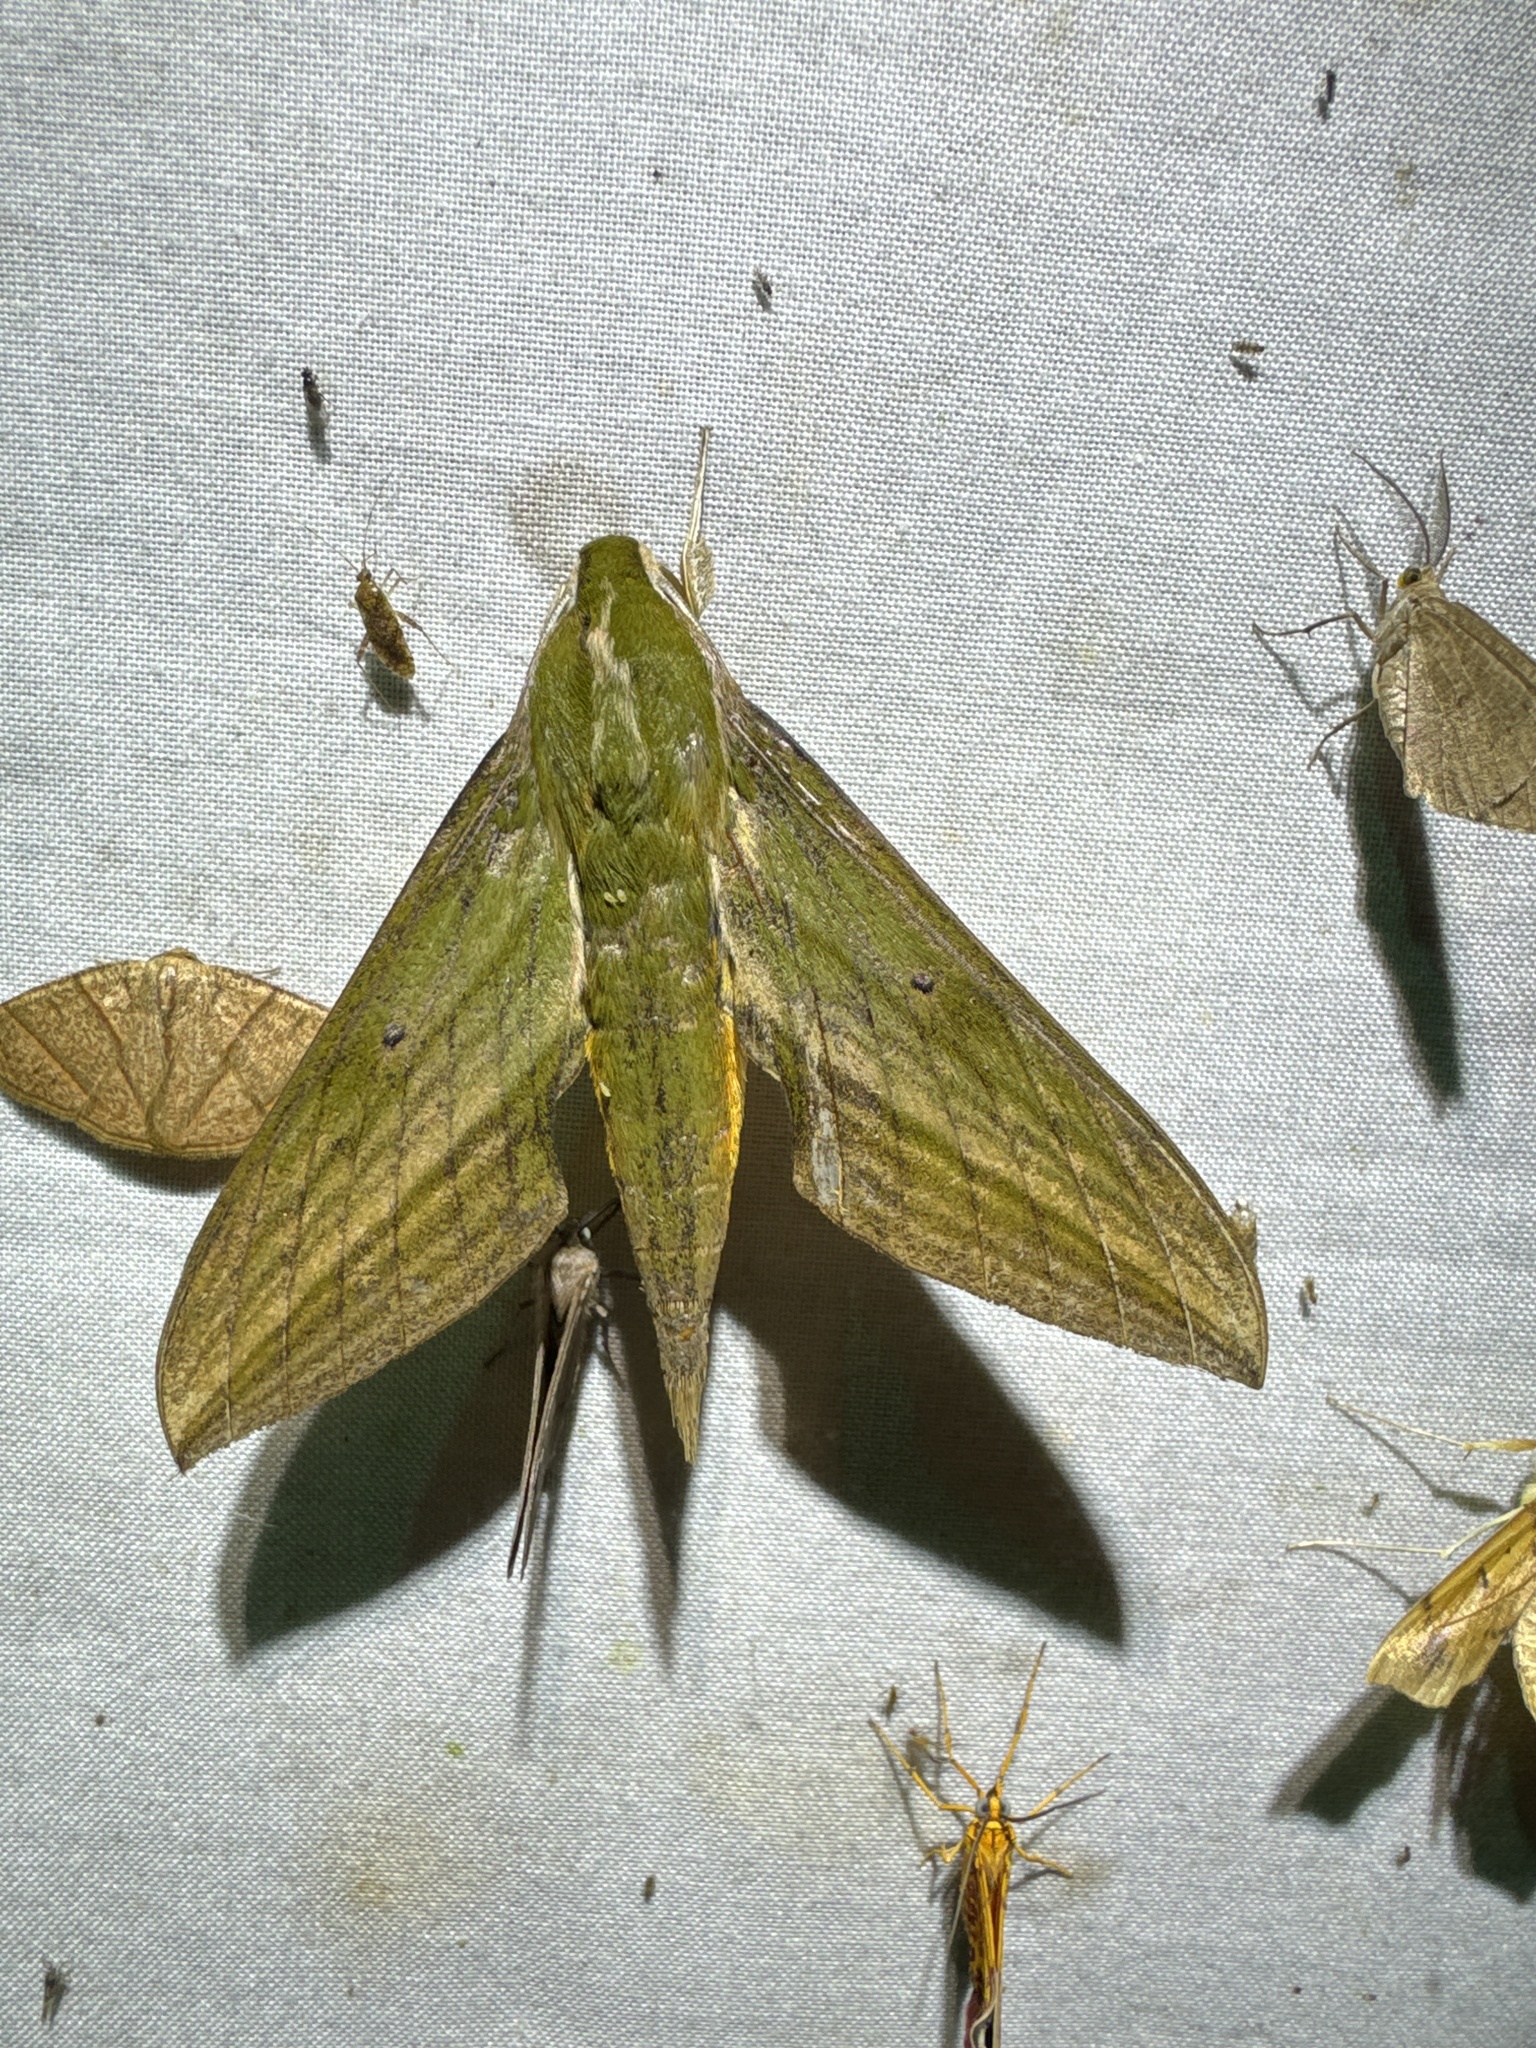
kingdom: Animalia
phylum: Arthropoda
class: Insecta
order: Lepidoptera
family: Sphingidae
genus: Xylophanes
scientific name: Xylophanes crotonis
